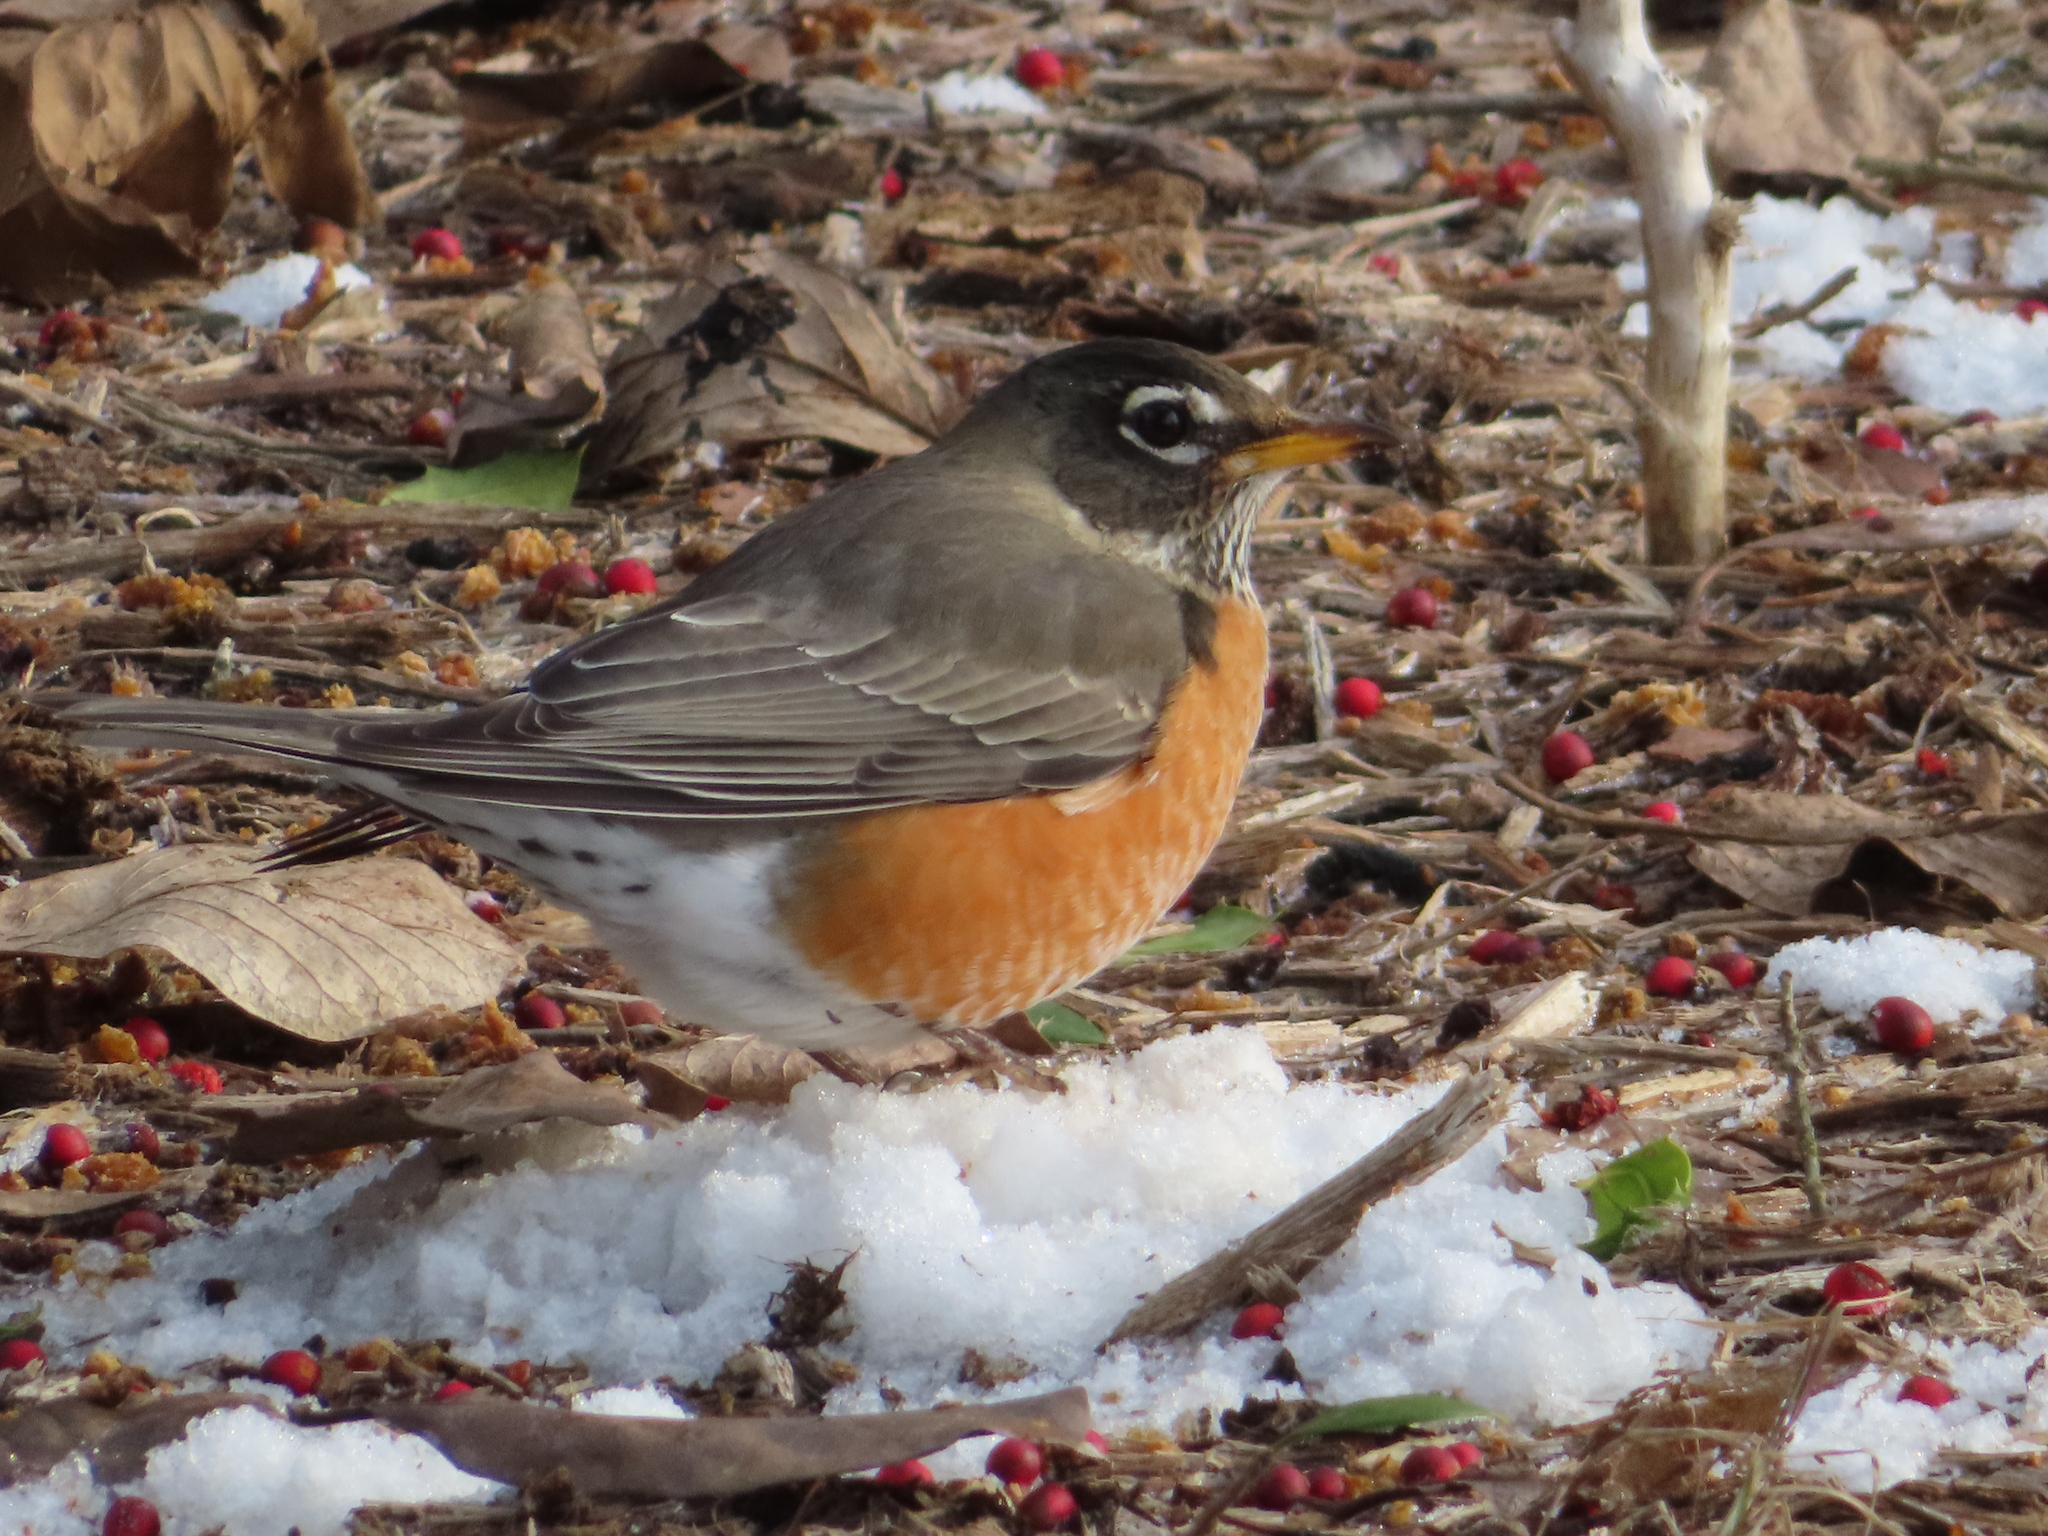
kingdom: Animalia
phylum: Chordata
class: Aves
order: Passeriformes
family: Turdidae
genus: Turdus
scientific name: Turdus migratorius
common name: American robin
